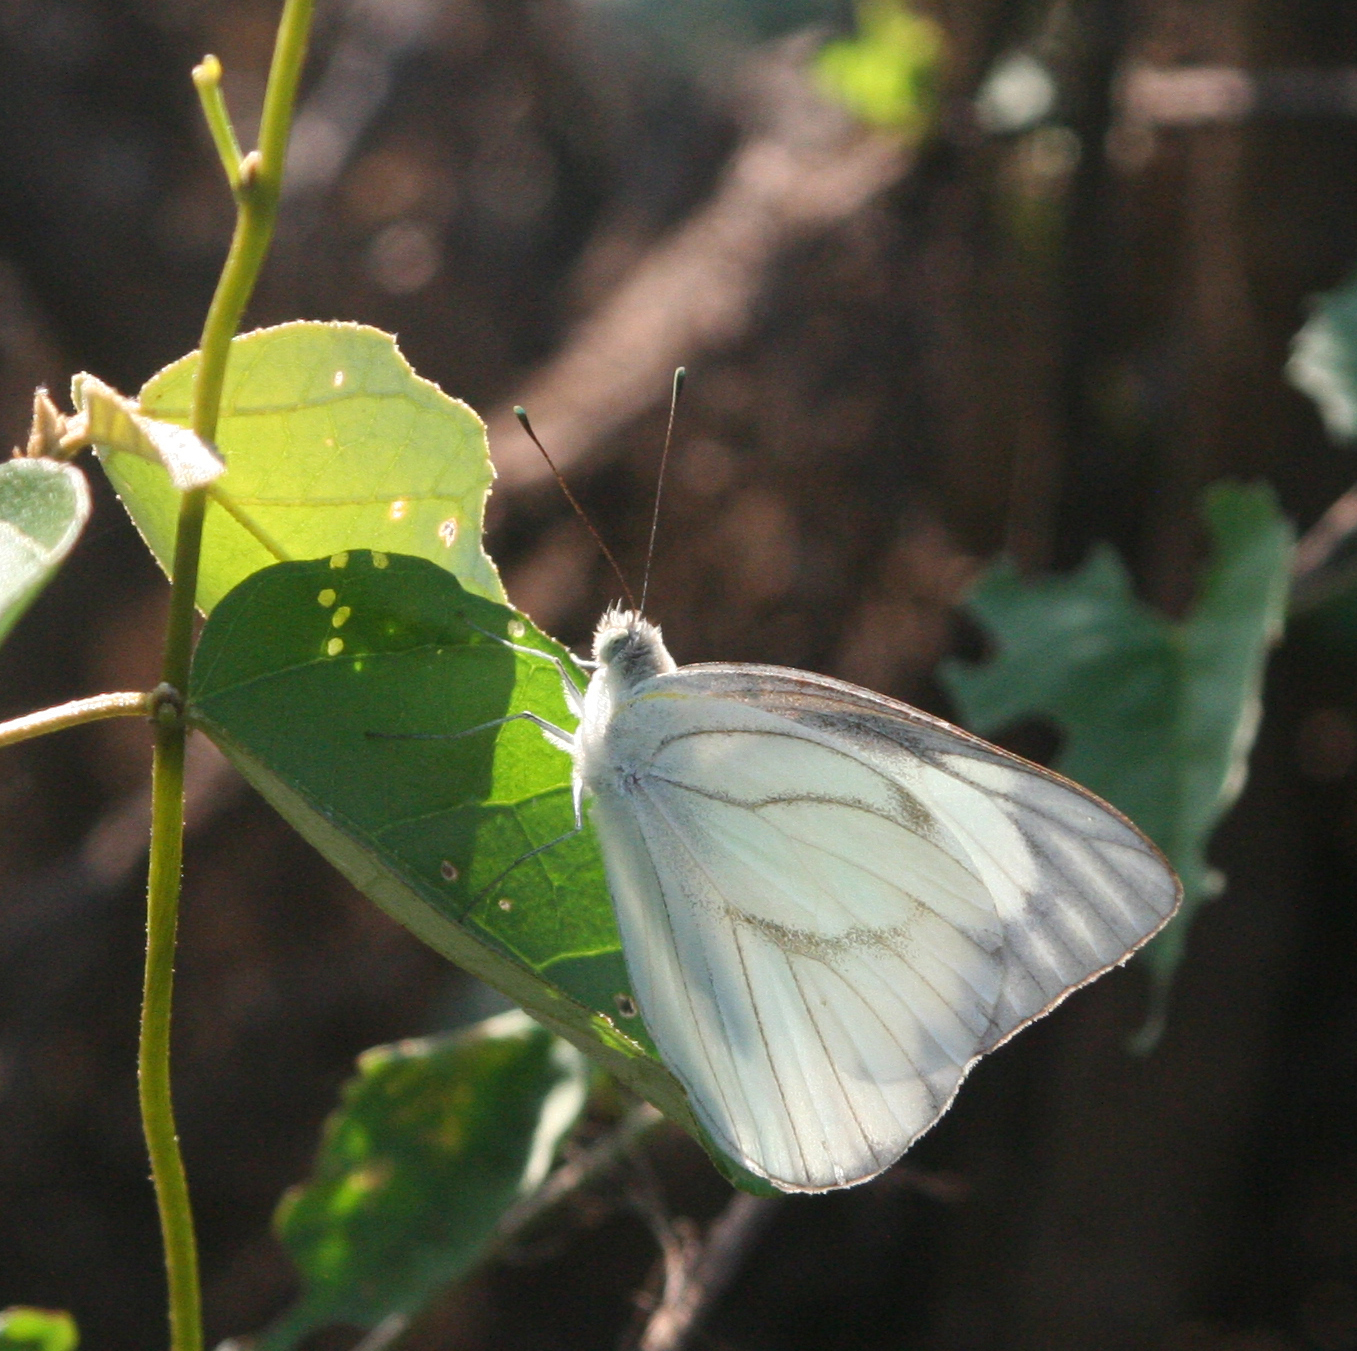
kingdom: Animalia
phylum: Arthropoda
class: Insecta
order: Lepidoptera
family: Pieridae
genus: Appias
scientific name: Appias libythea
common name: Striped albatross
